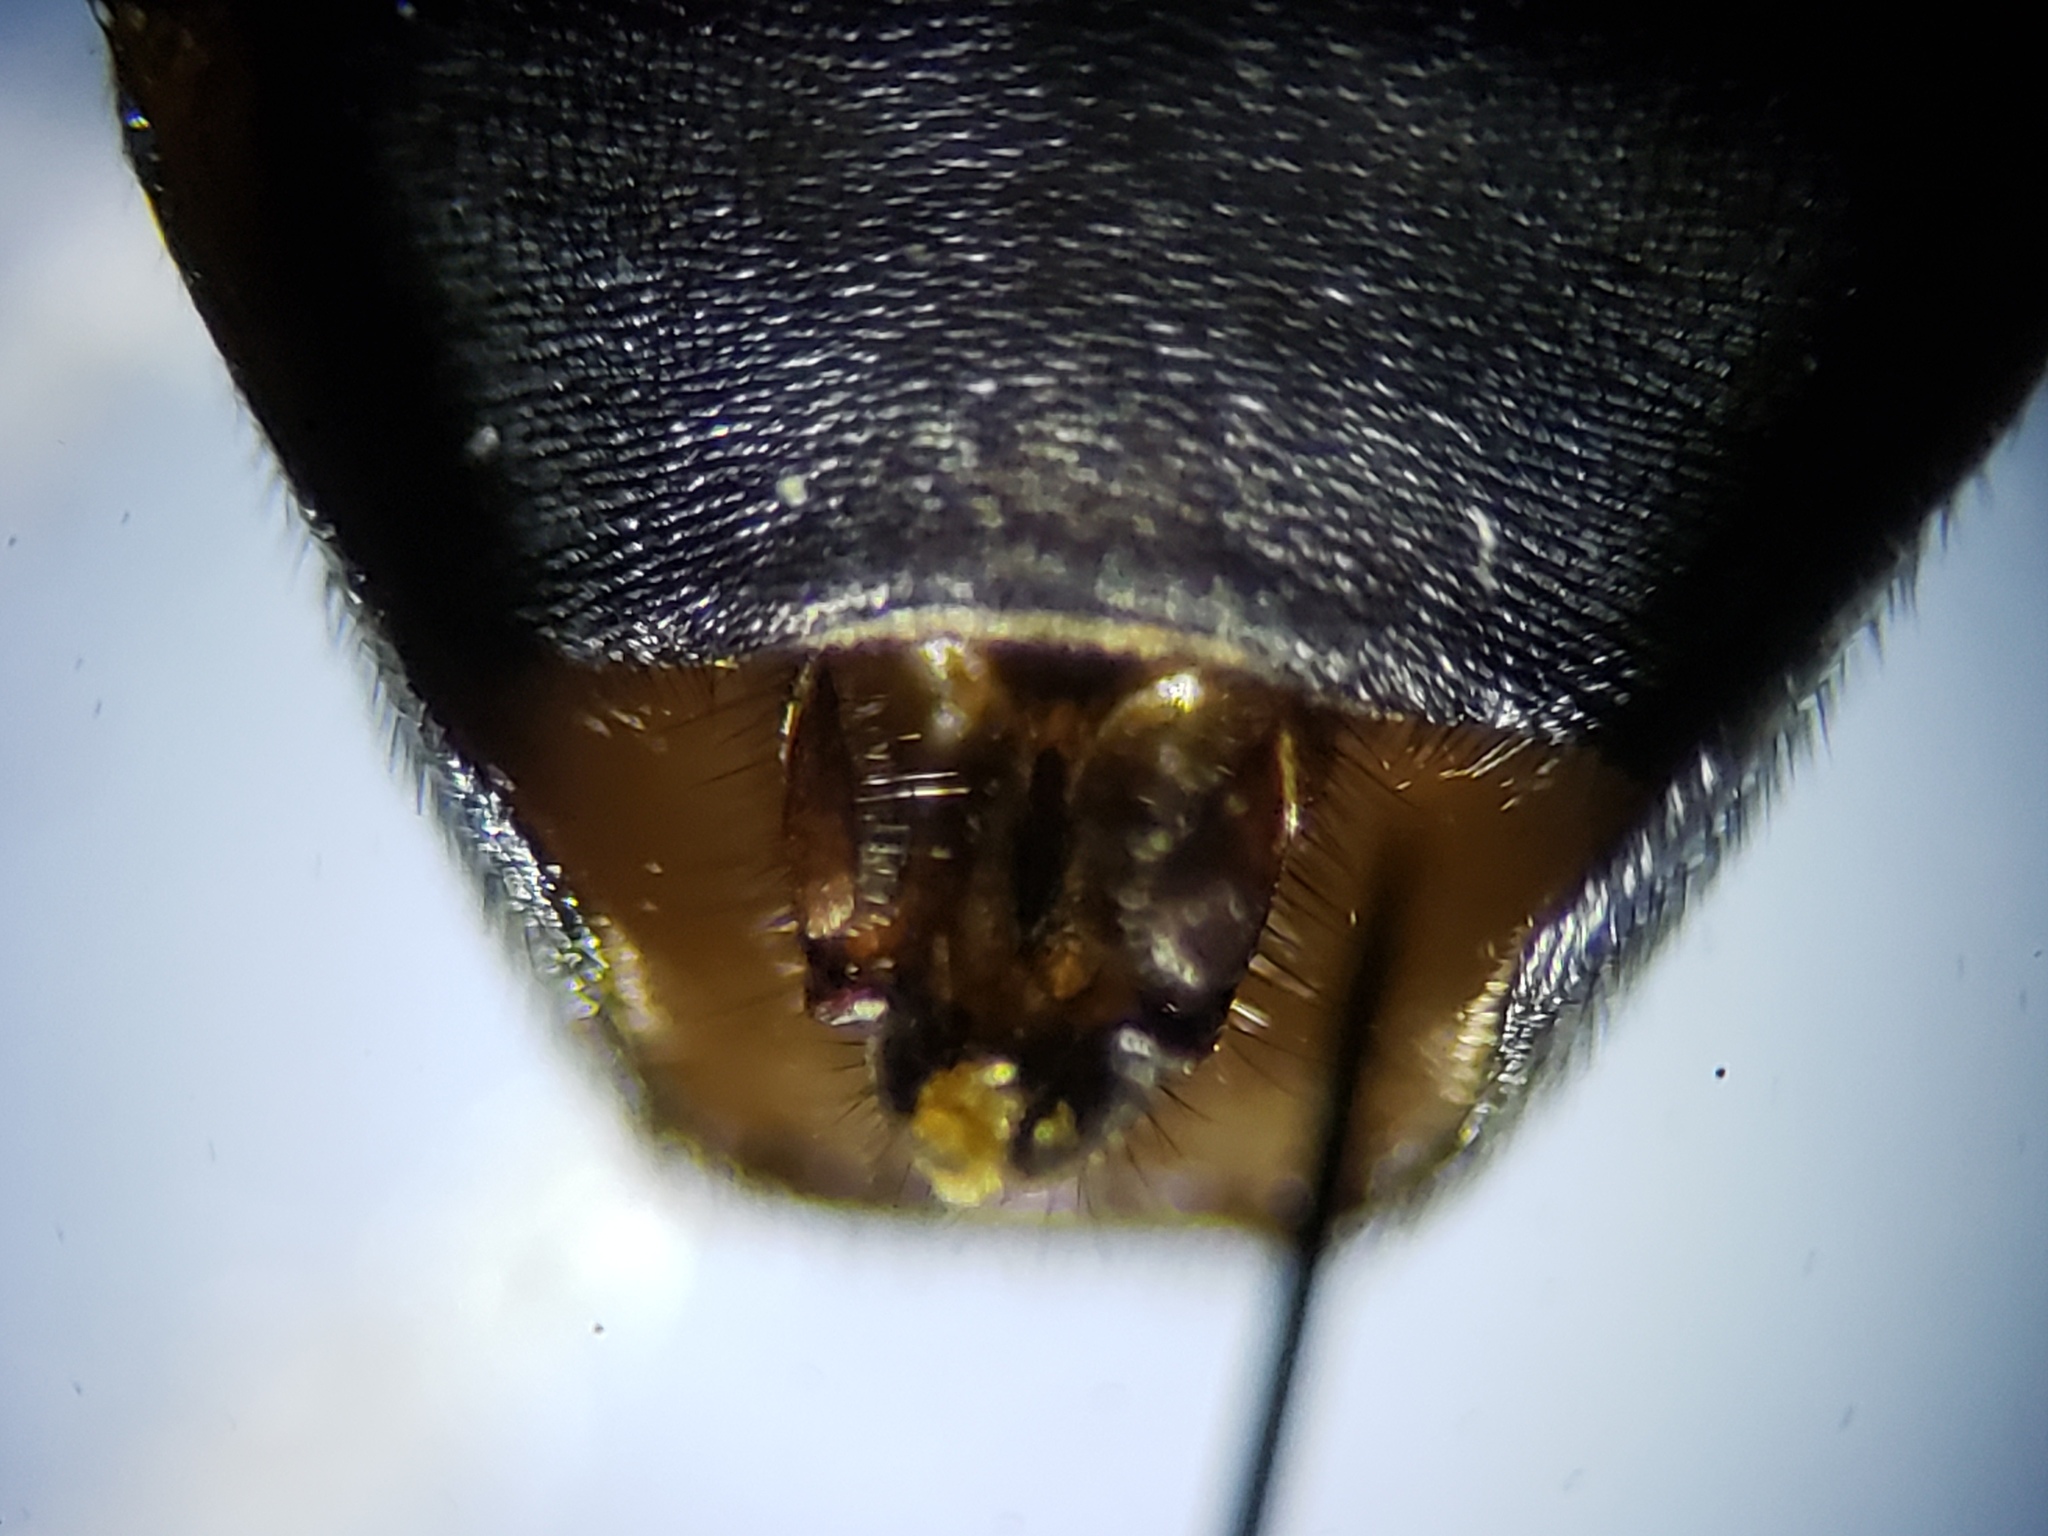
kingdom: Animalia
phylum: Arthropoda
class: Insecta
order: Diptera
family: Stratiomyidae
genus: Hermetia
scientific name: Hermetia sexmaculata
